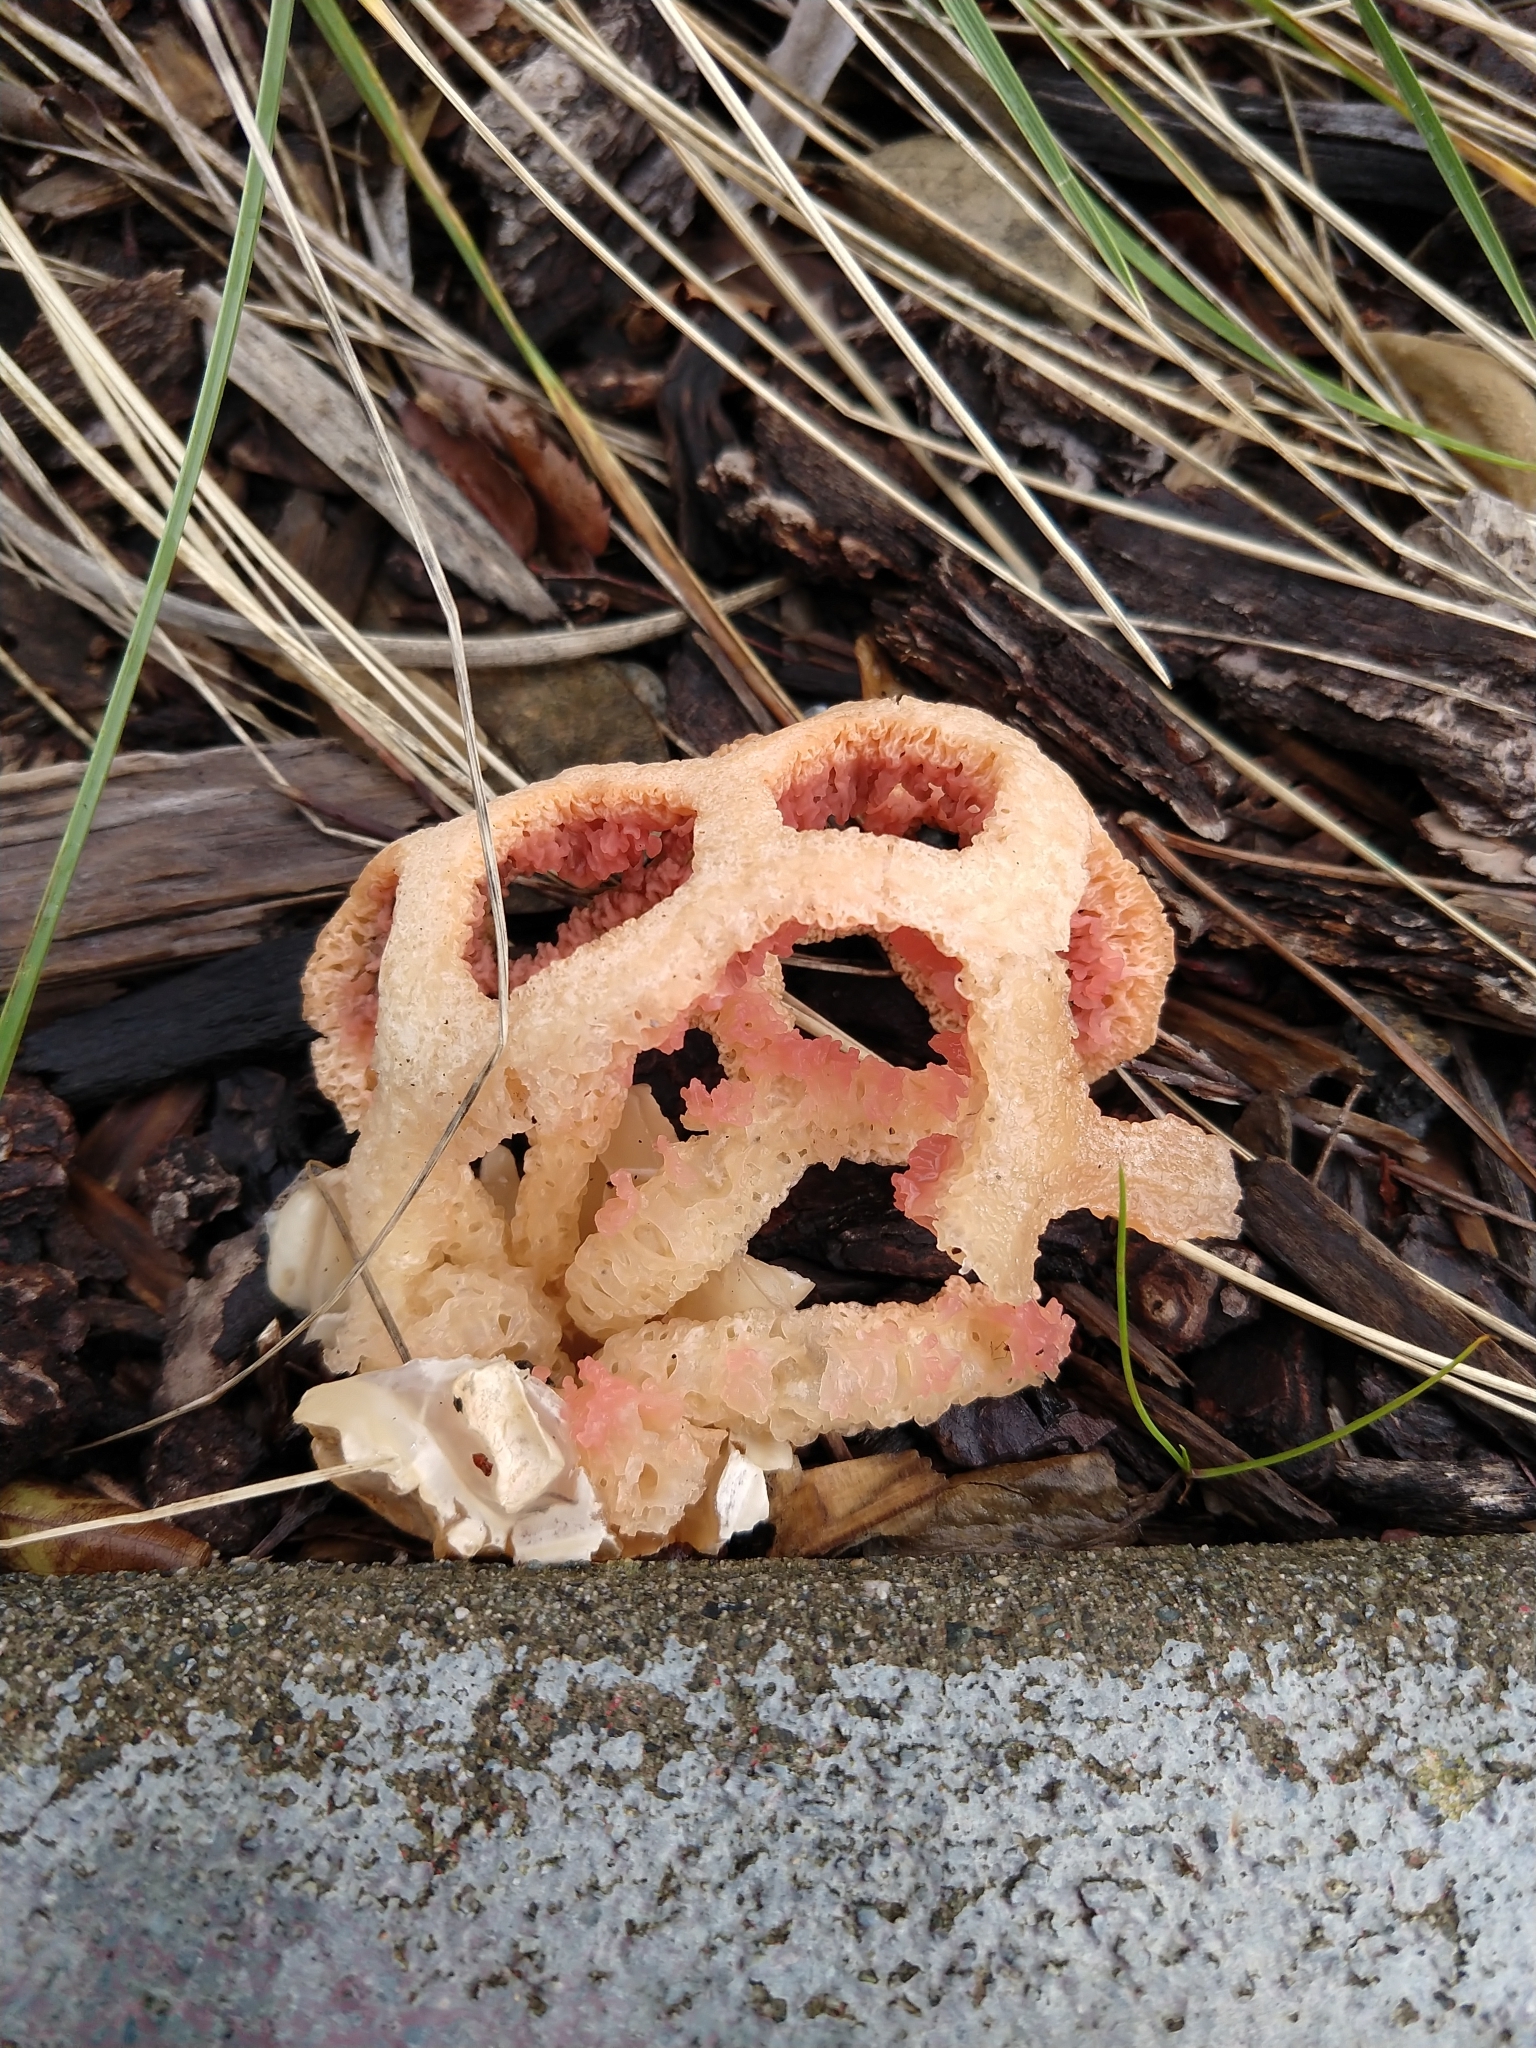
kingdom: Fungi
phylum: Basidiomycota
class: Agaricomycetes
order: Phallales
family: Phallaceae
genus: Clathrus
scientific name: Clathrus ruber
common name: Red cage
